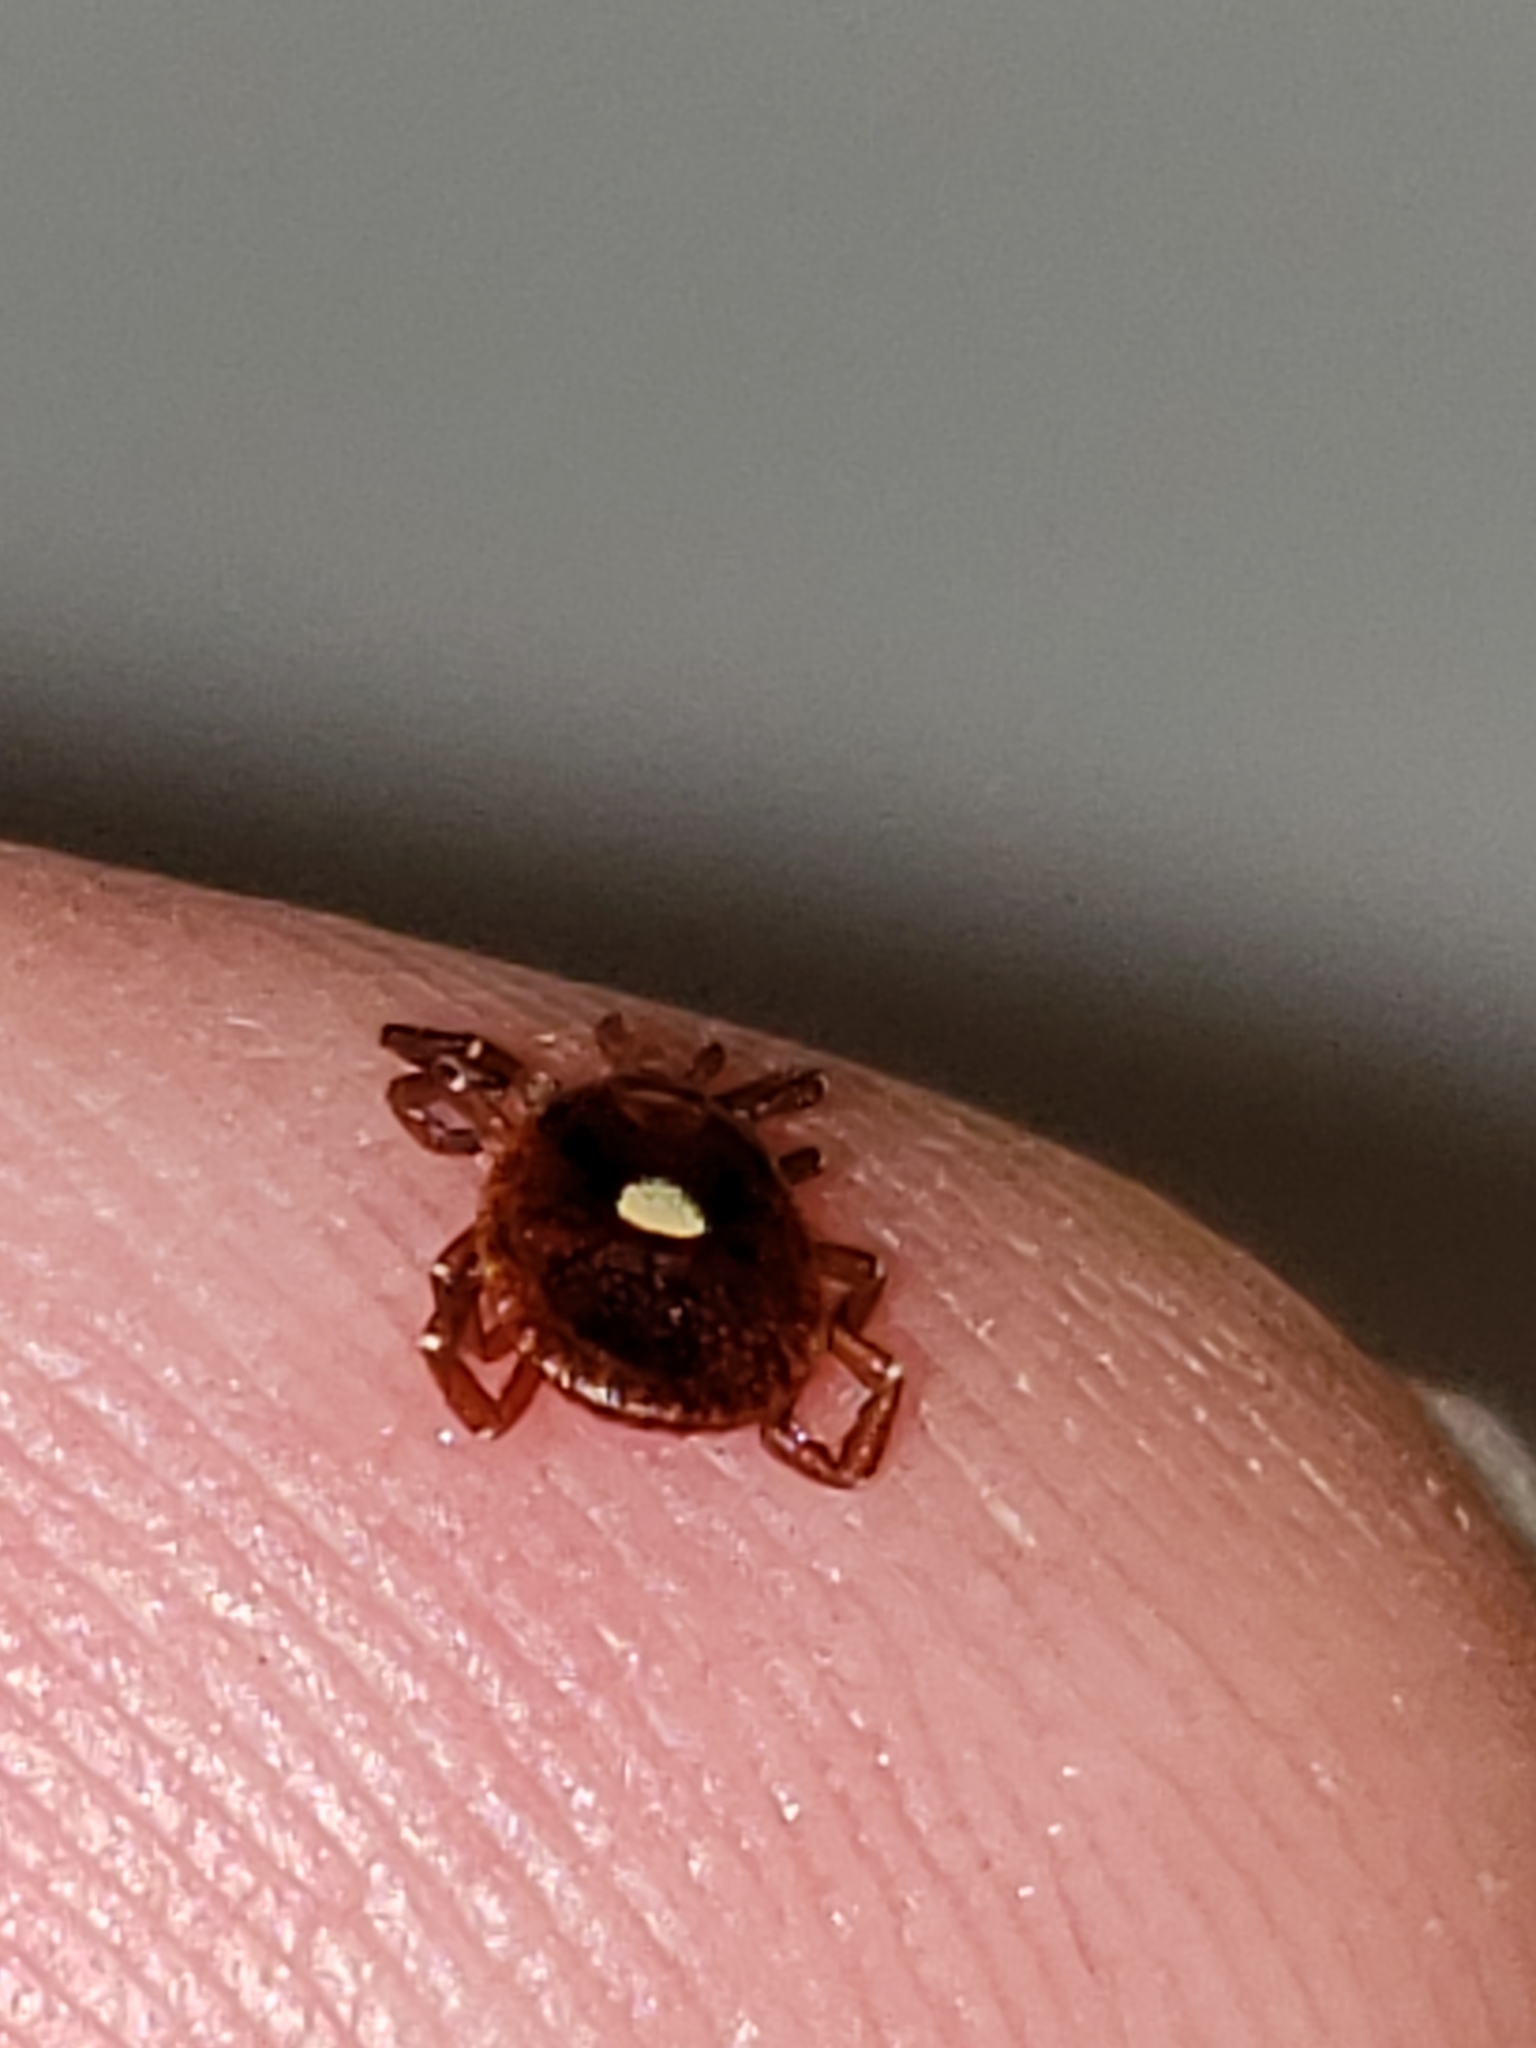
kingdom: Animalia
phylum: Arthropoda
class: Arachnida
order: Ixodida
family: Ixodidae
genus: Amblyomma
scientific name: Amblyomma americanum
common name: Lone star tick
